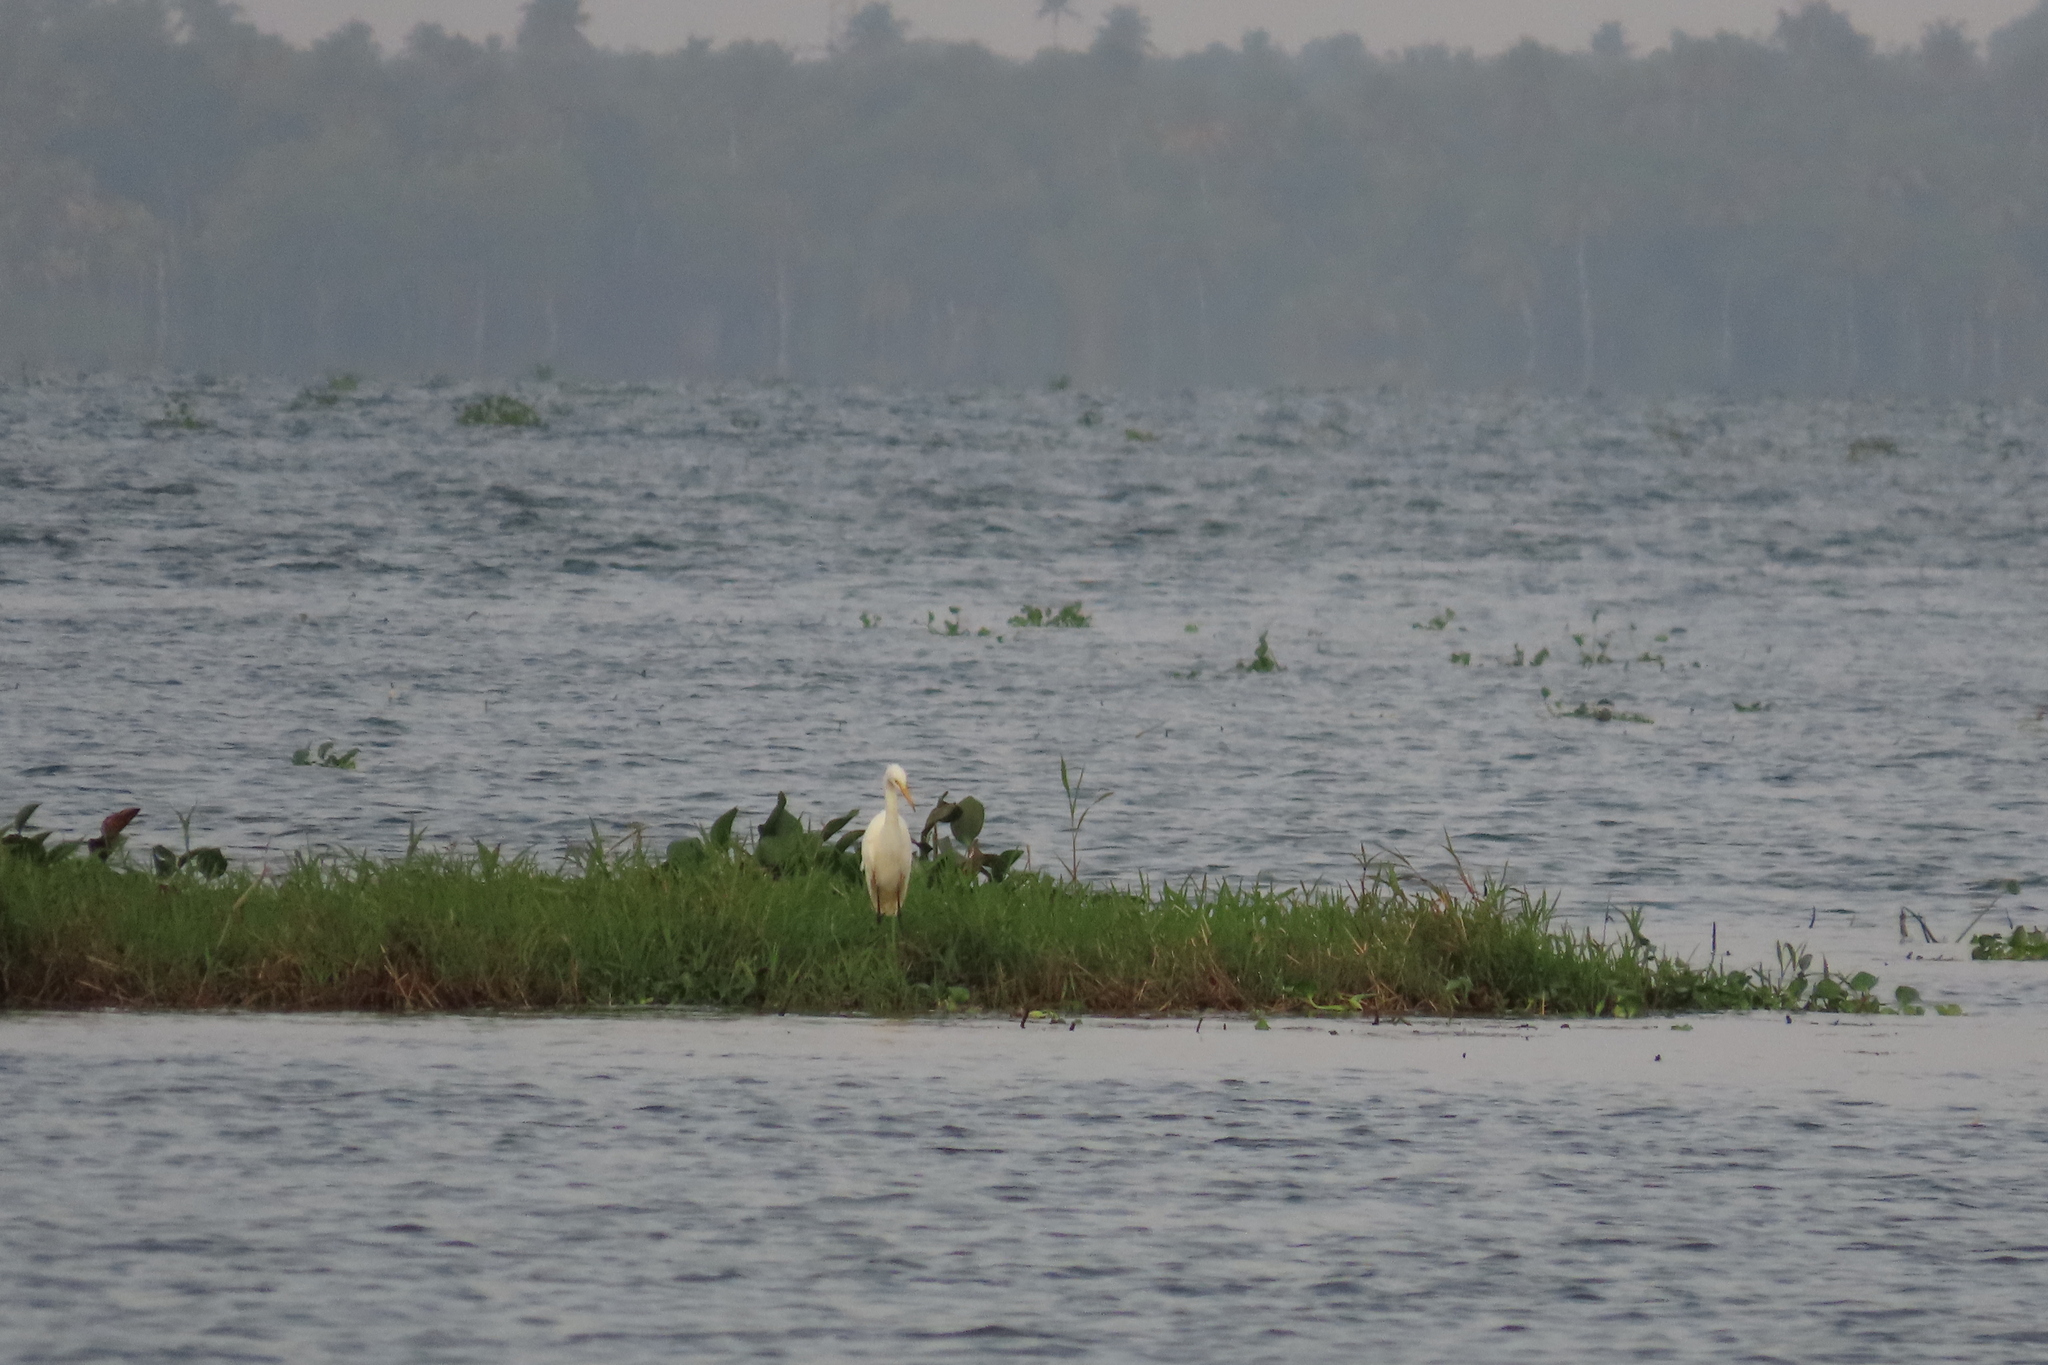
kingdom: Animalia
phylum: Chordata
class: Aves
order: Pelecaniformes
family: Ardeidae
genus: Egretta
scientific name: Egretta intermedia
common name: Intermediate egret
